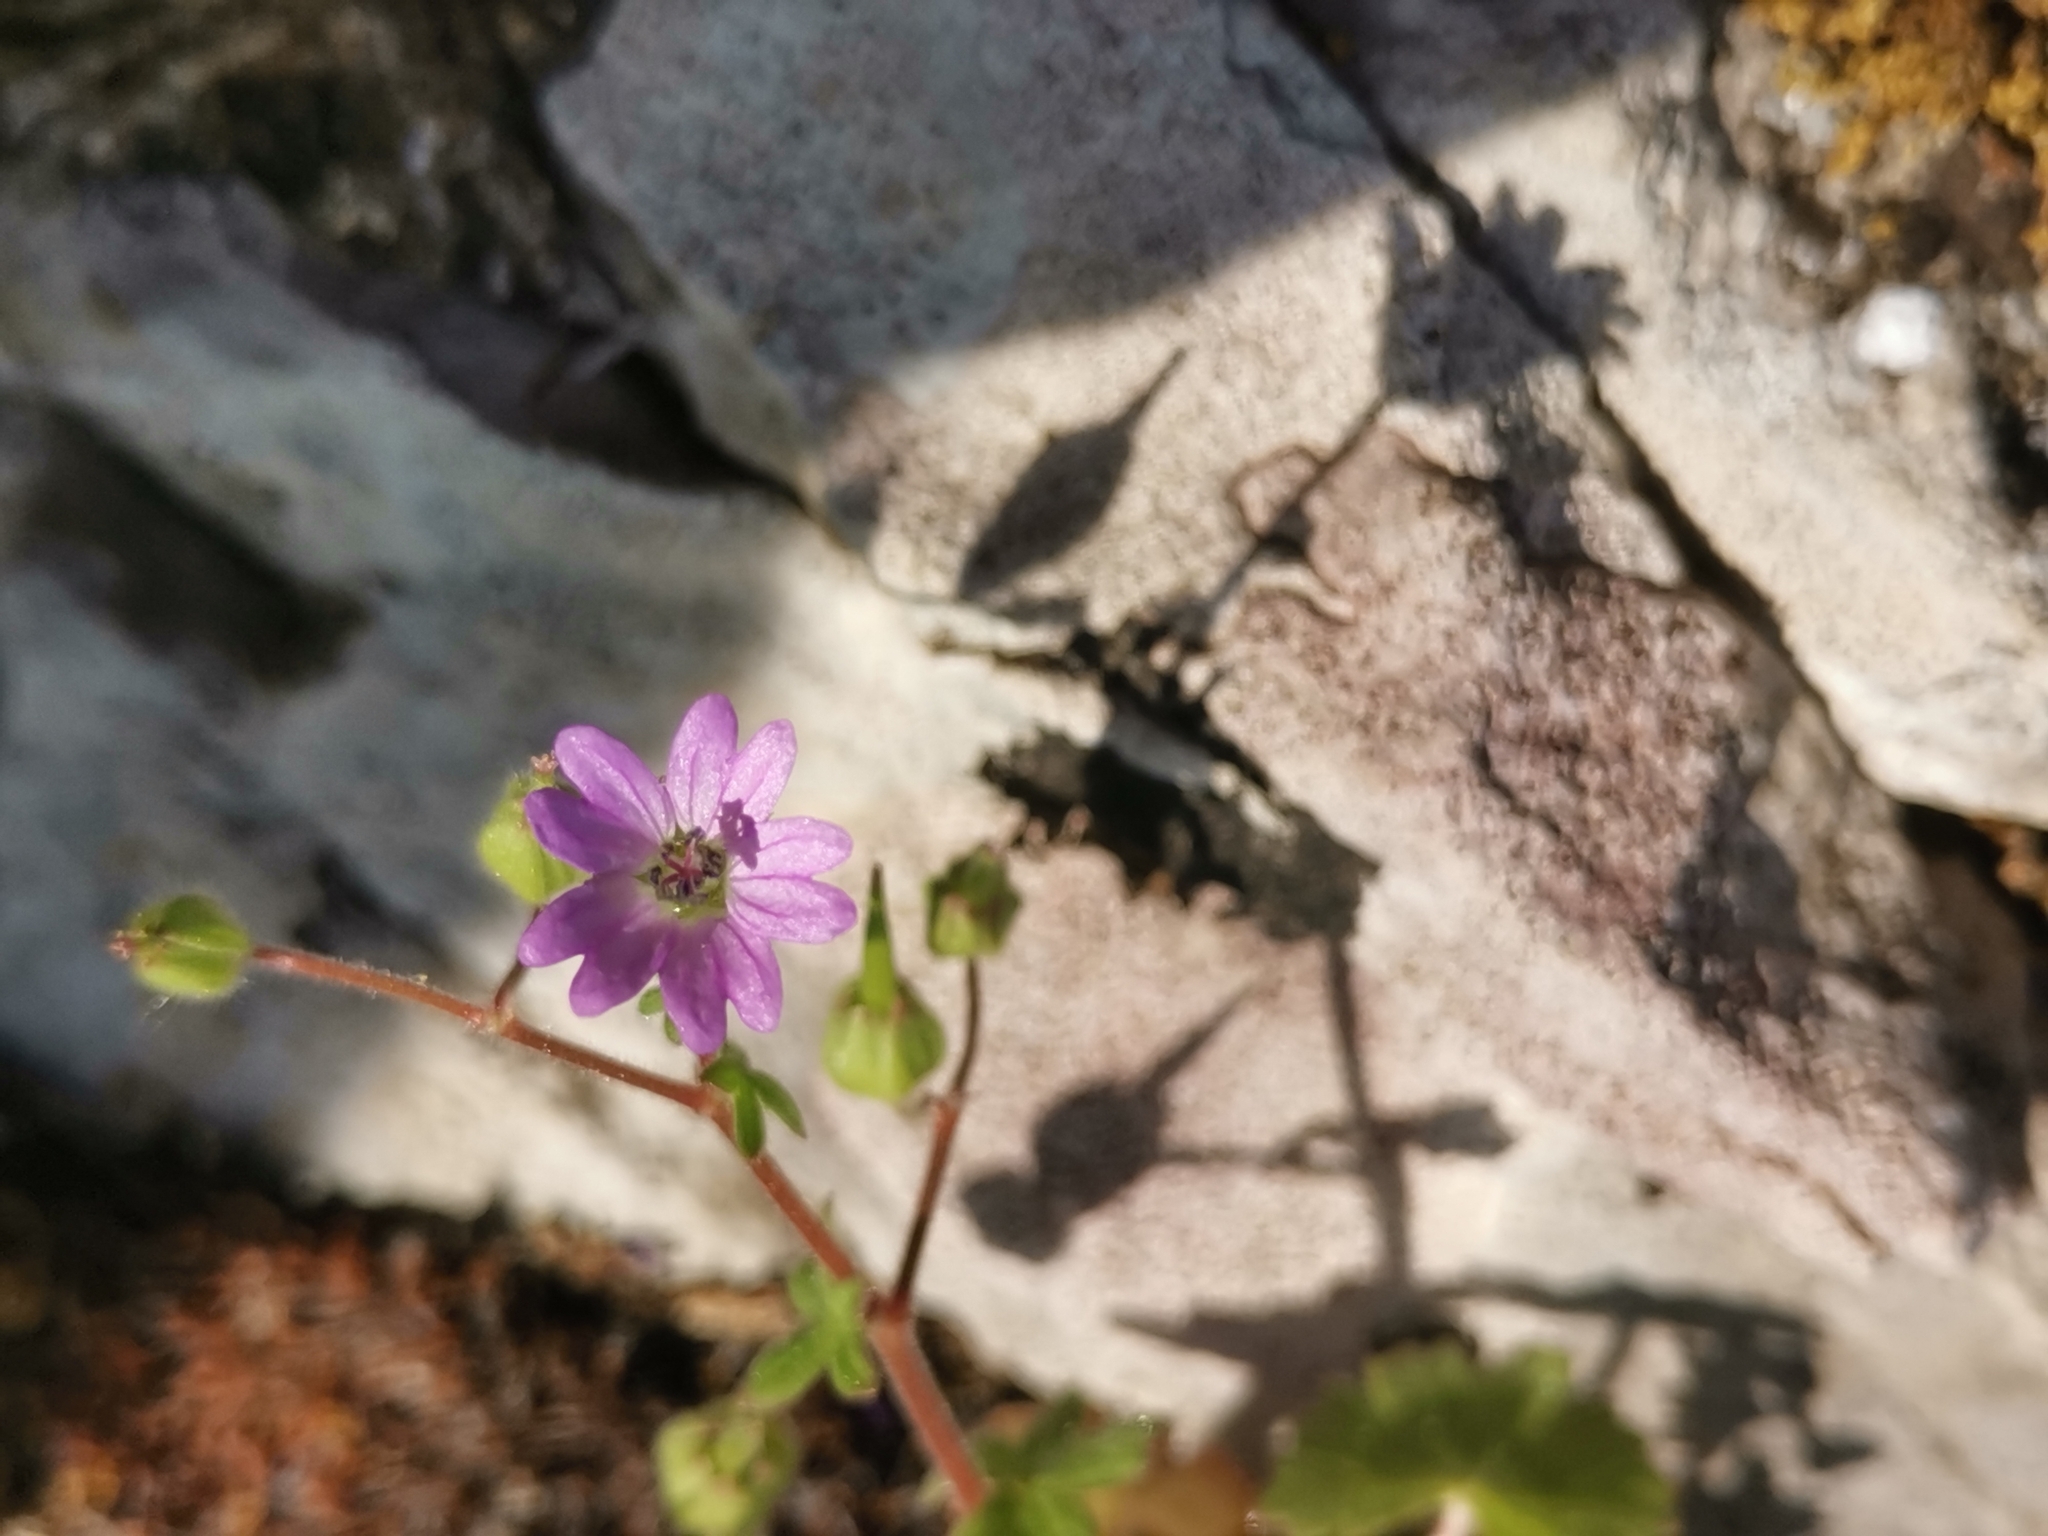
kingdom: Plantae
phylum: Tracheophyta
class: Magnoliopsida
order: Geraniales
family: Geraniaceae
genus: Geranium
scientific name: Geranium molle
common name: Dove's-foot crane's-bill
